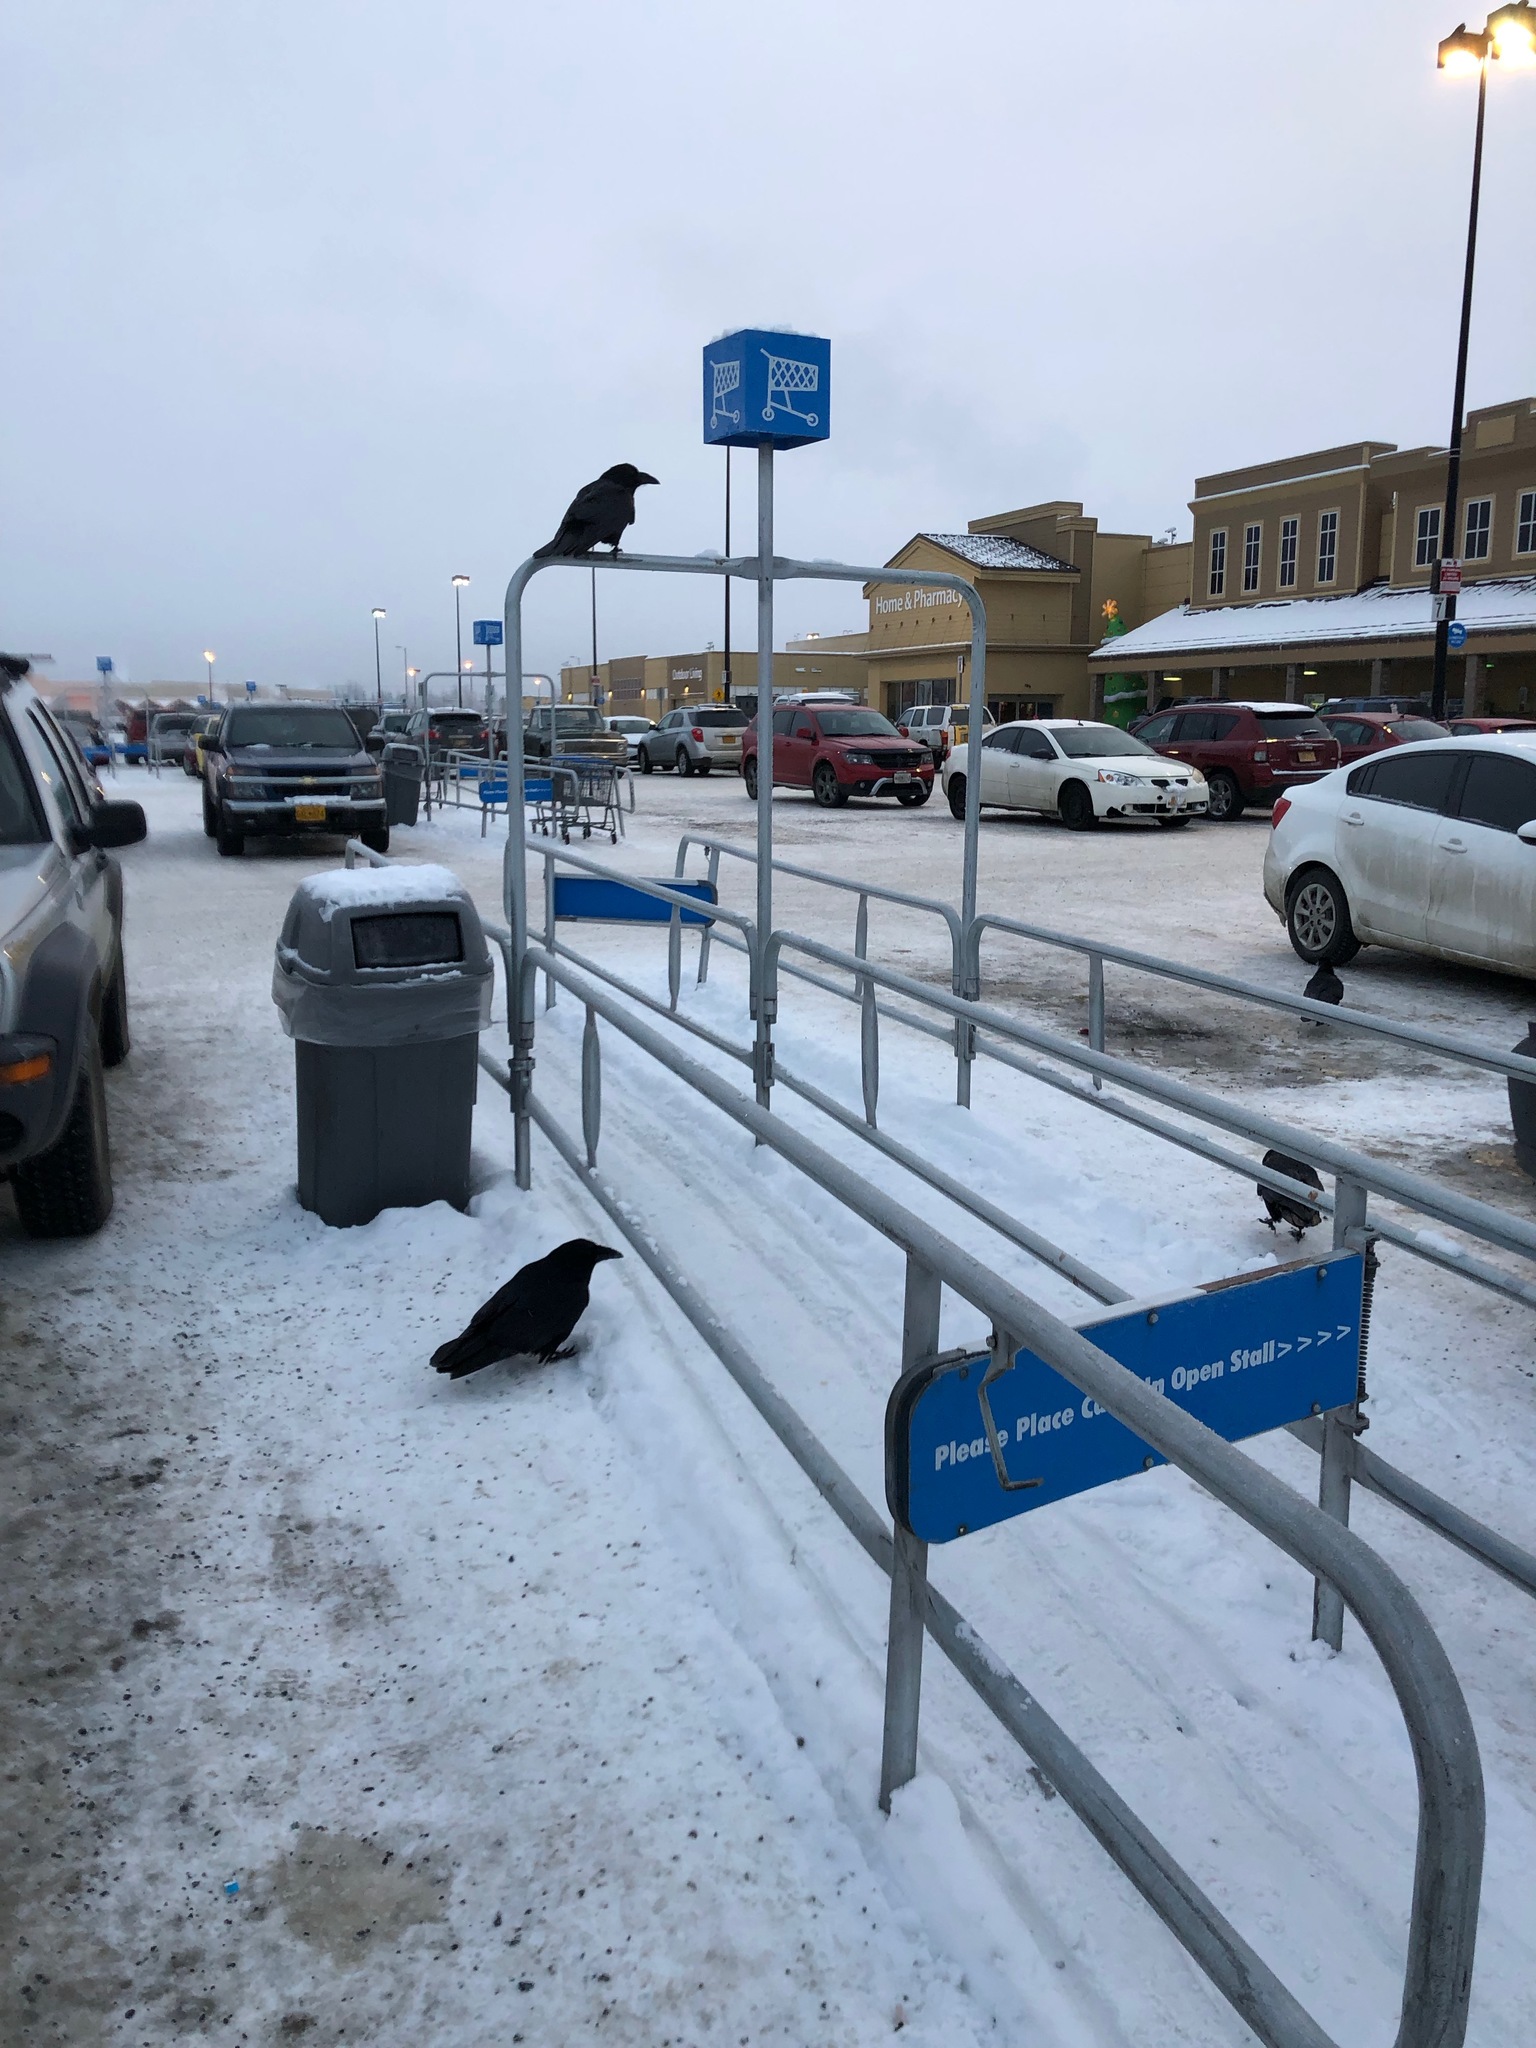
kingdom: Animalia
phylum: Chordata
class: Aves
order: Passeriformes
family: Corvidae
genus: Corvus
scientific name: Corvus corax
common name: Common raven
